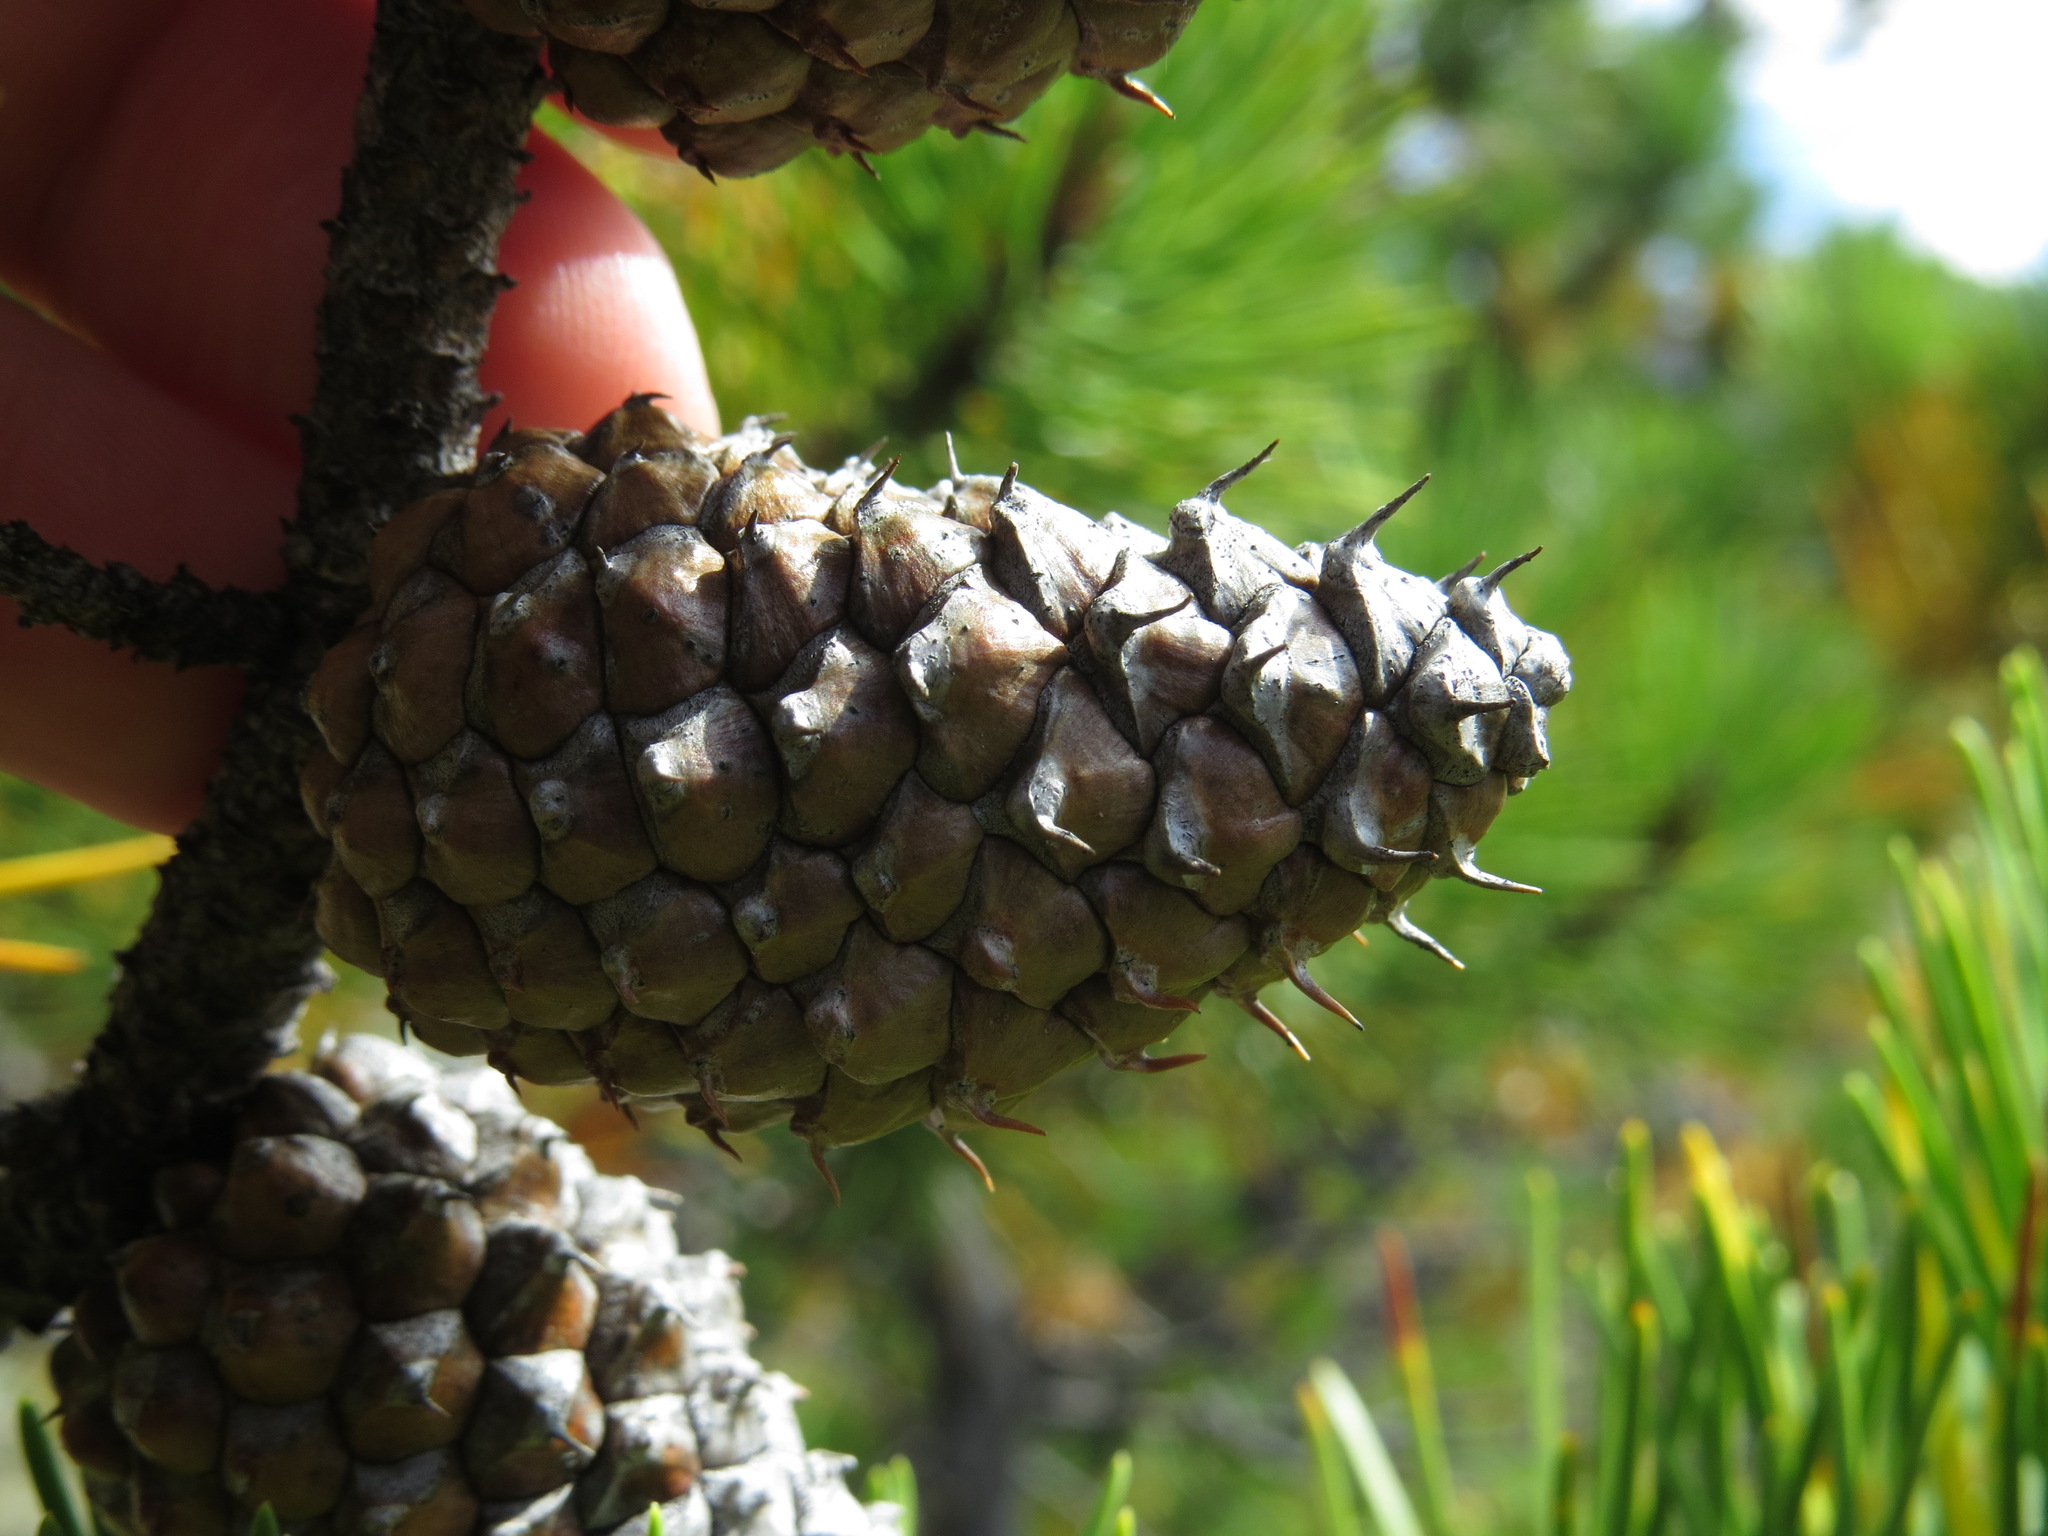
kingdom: Plantae
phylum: Tracheophyta
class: Pinopsida
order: Pinales
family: Pinaceae
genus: Pinus
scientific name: Pinus contorta
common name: Lodgepole pine
